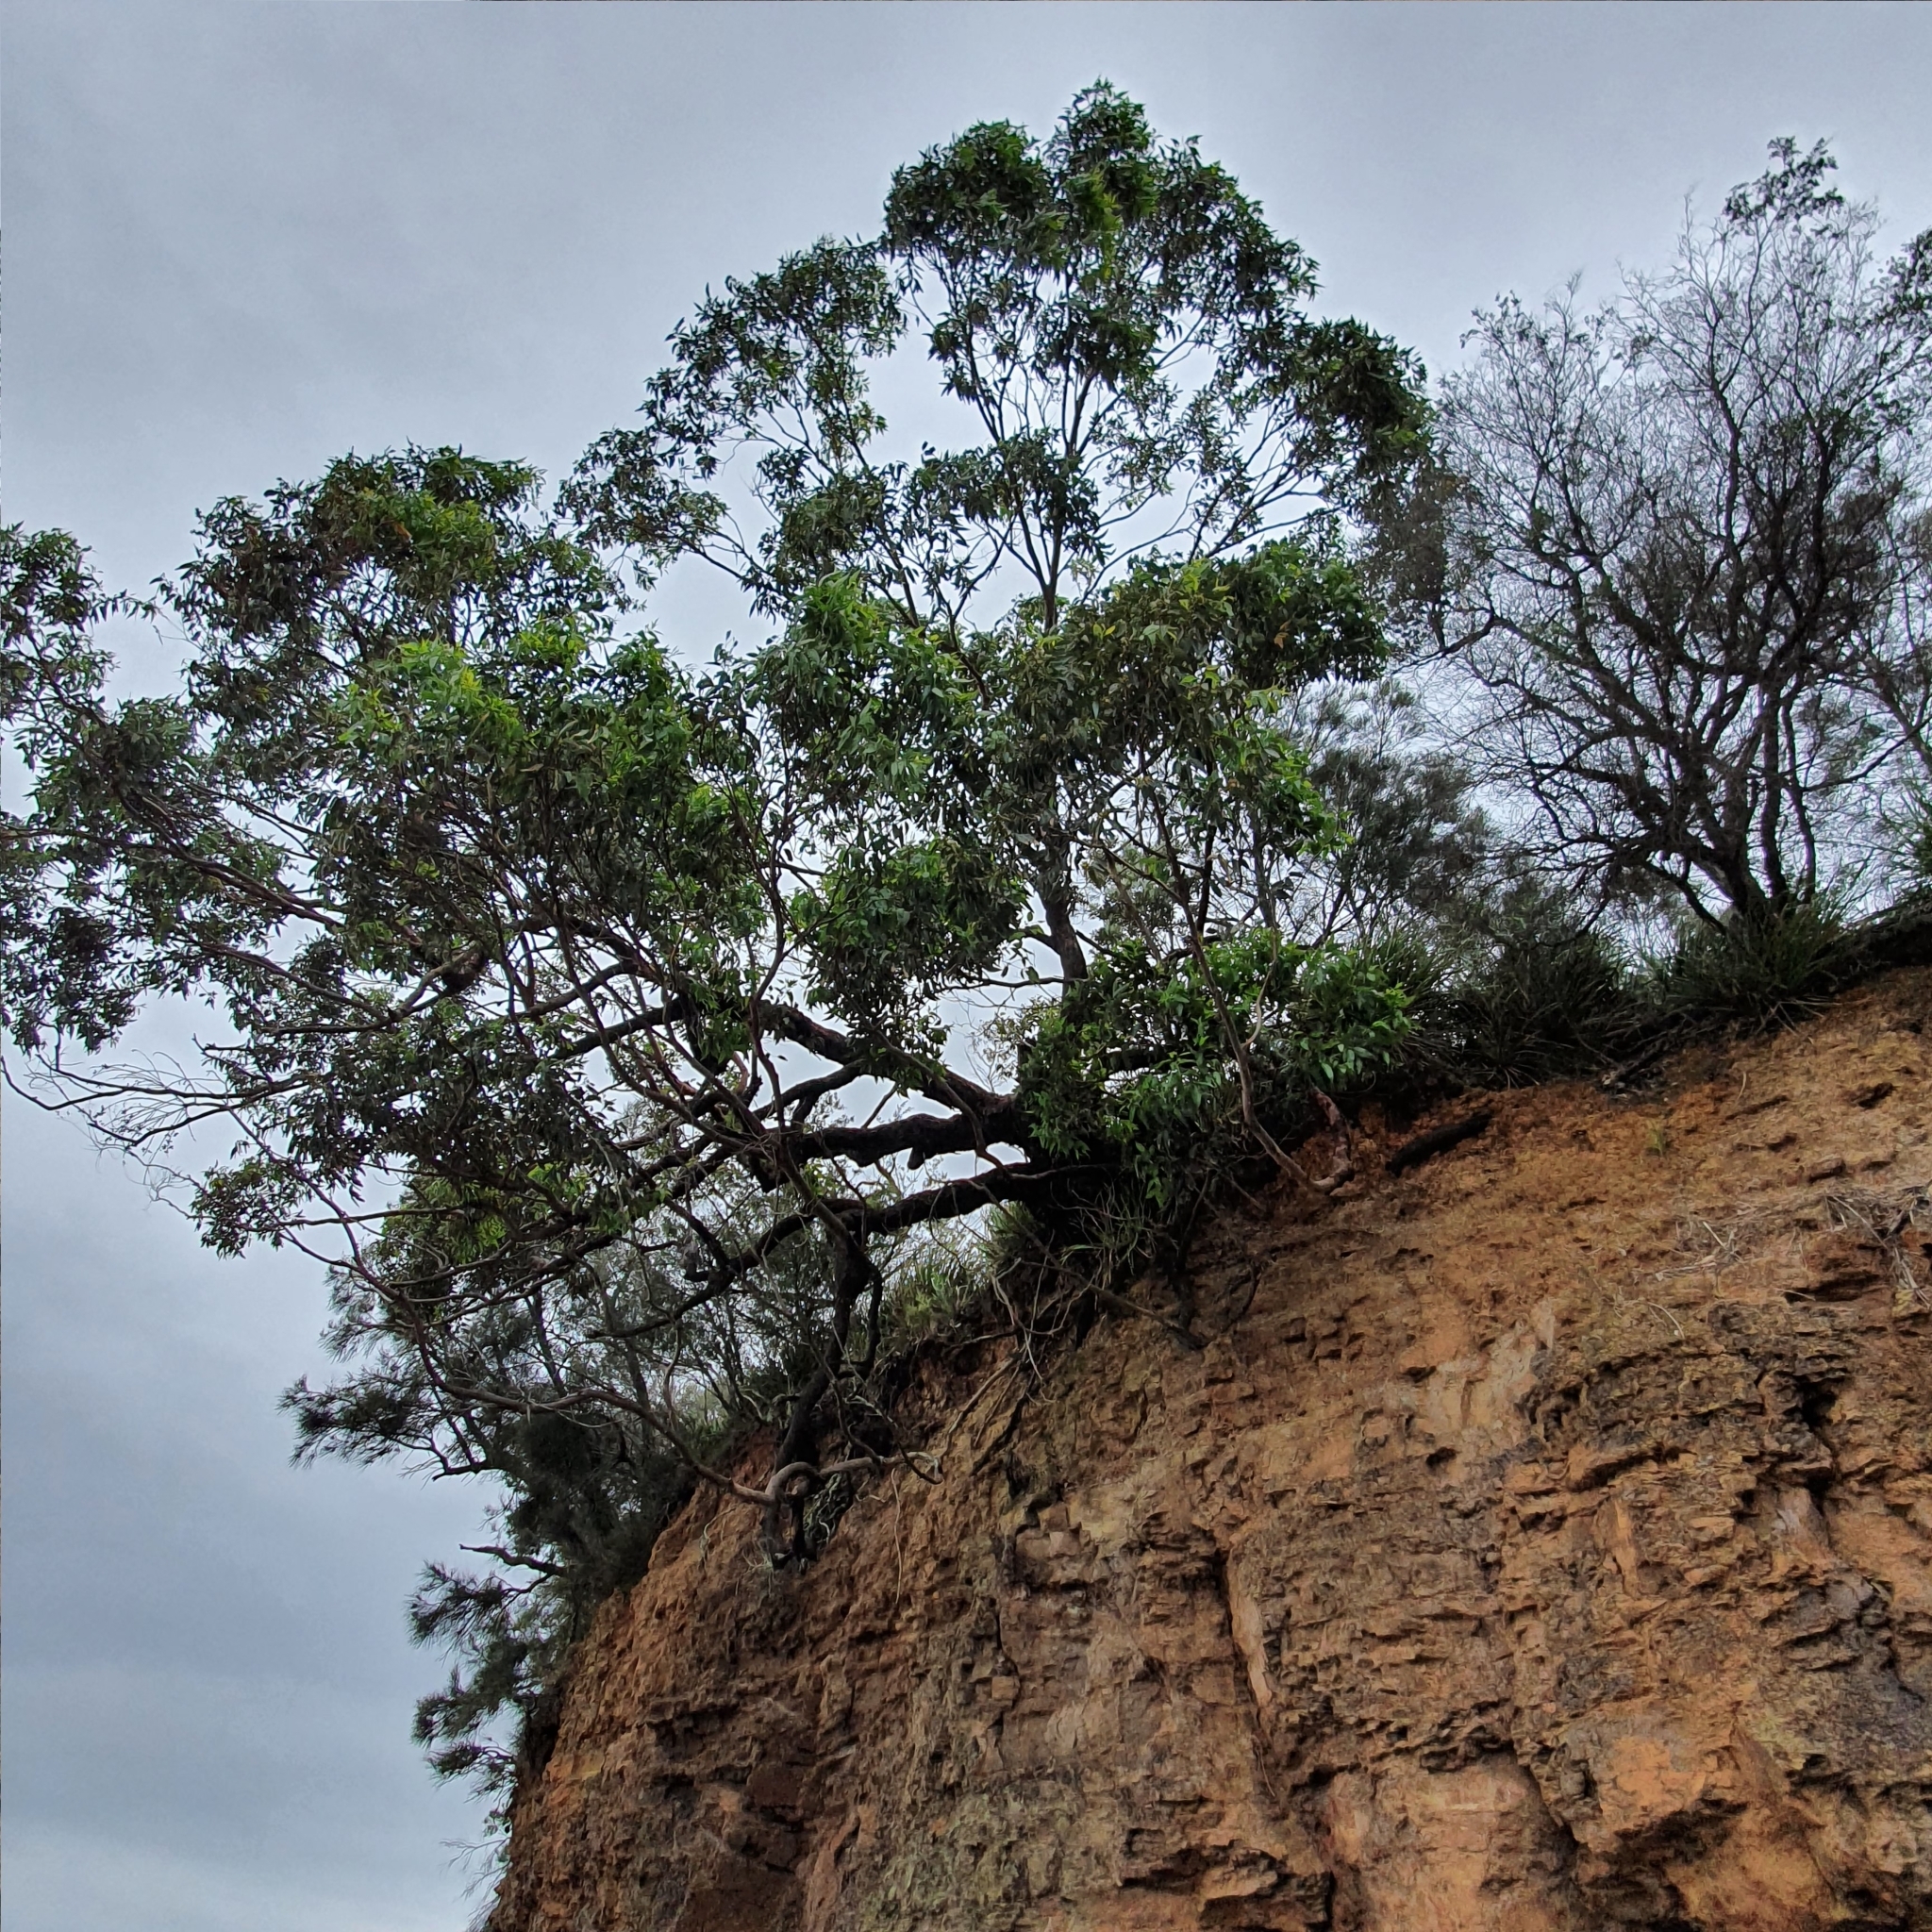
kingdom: Plantae
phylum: Tracheophyta
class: Magnoliopsida
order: Myrtales
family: Myrtaceae
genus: Eucalyptus
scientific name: Eucalyptus botryoides
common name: Bangalay
